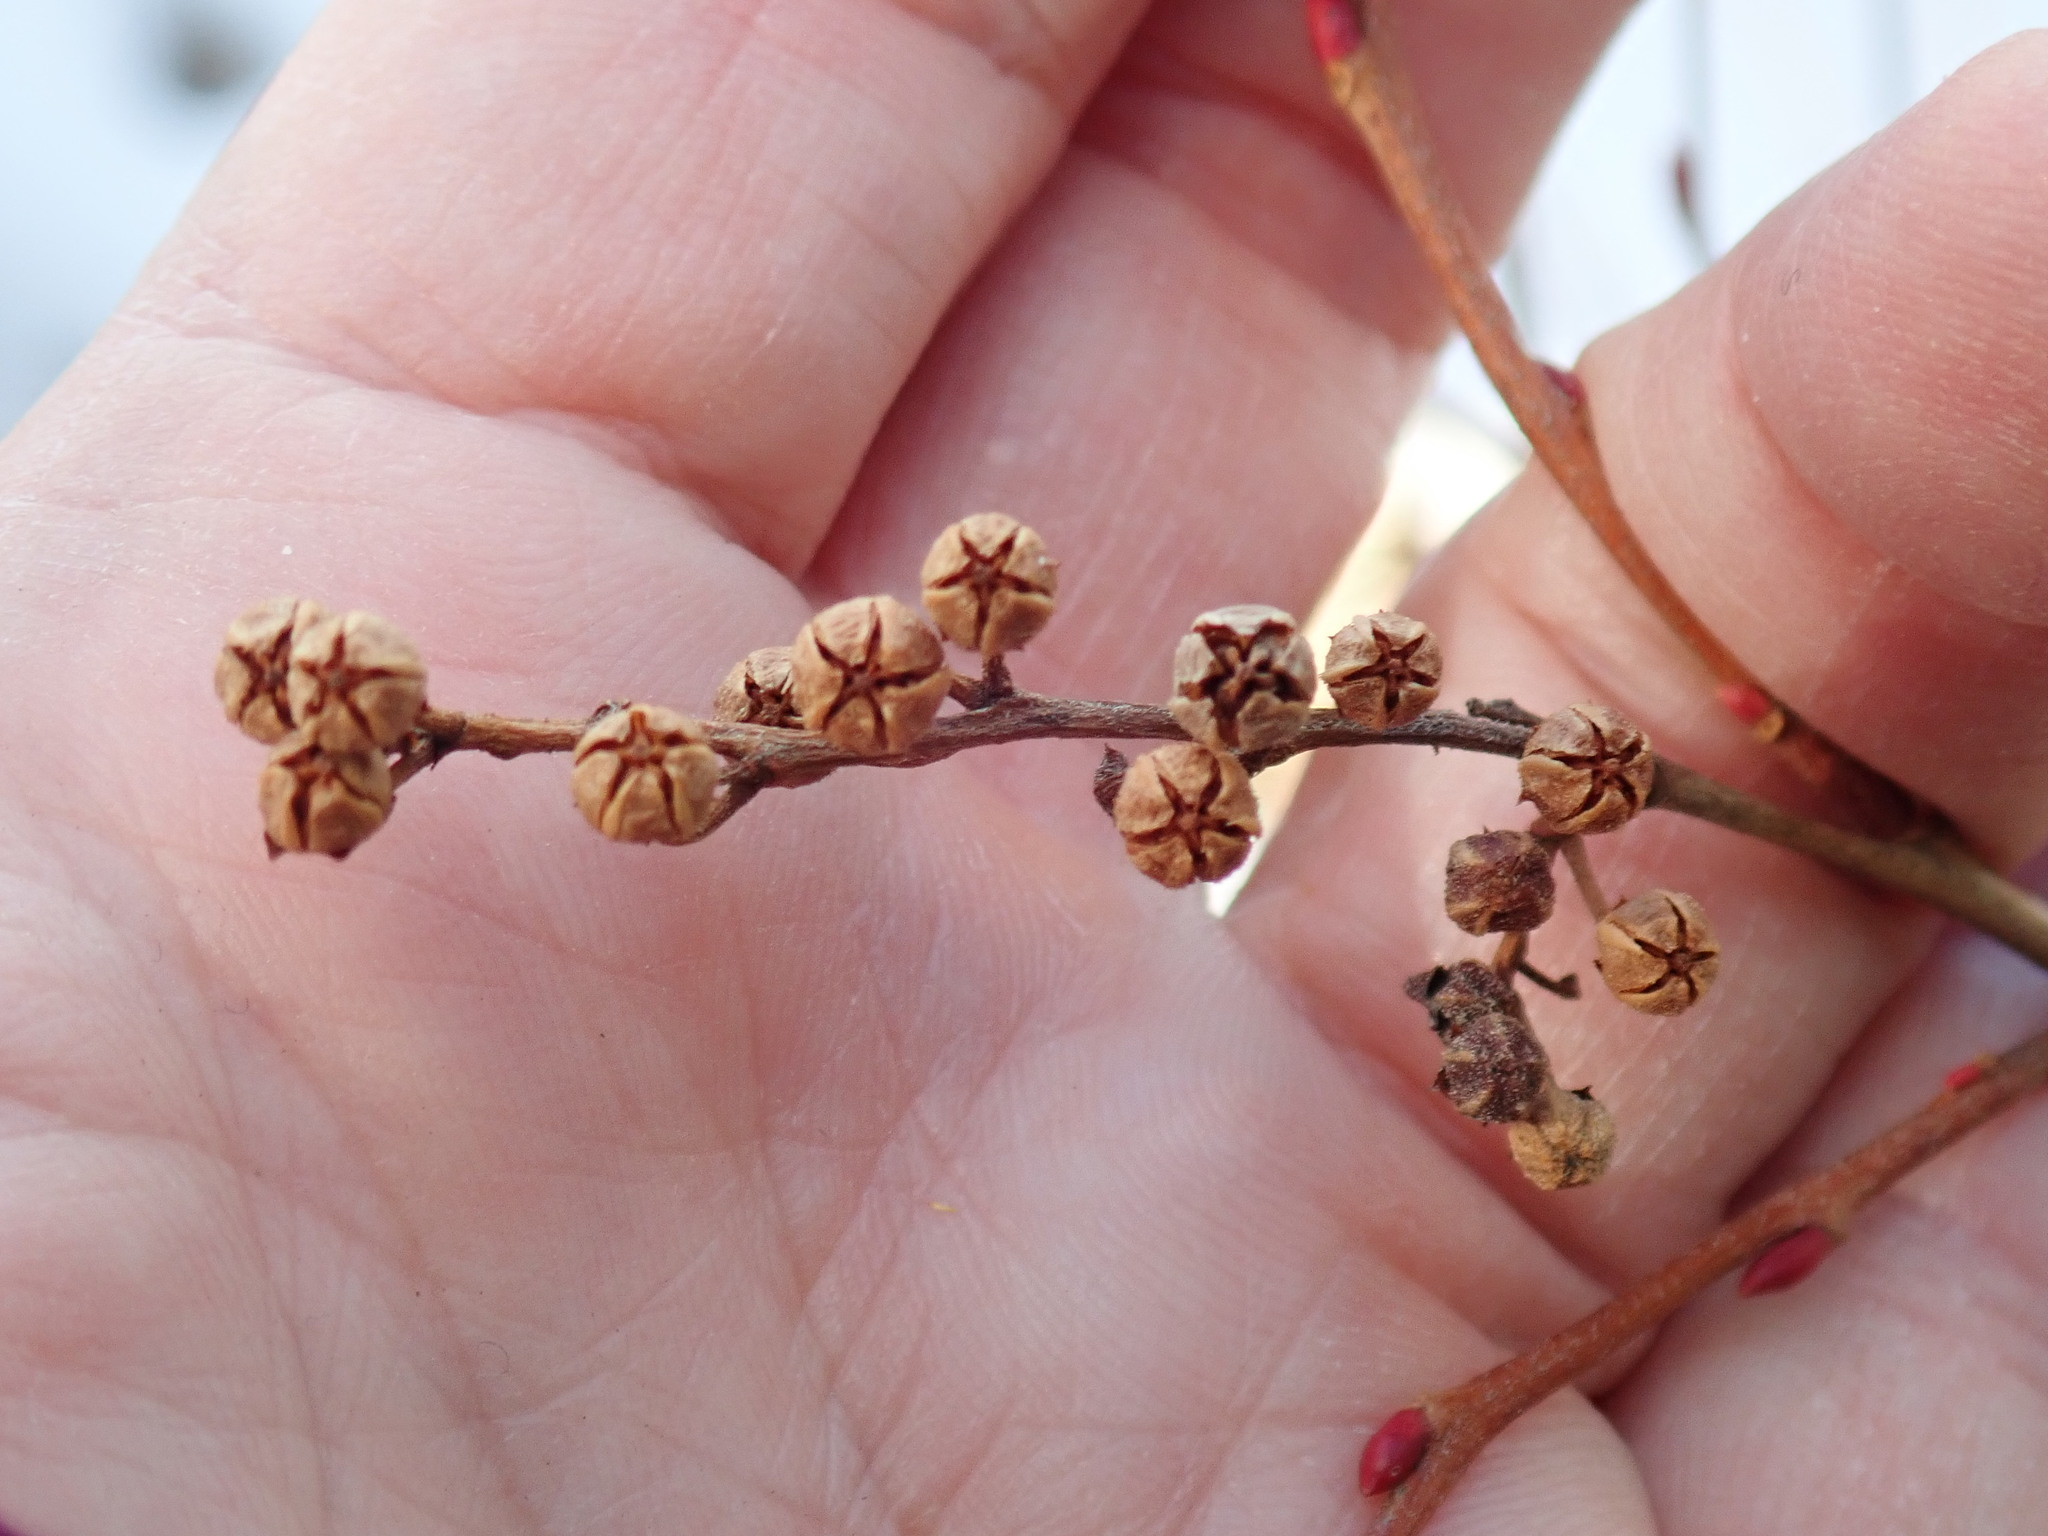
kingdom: Plantae
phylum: Tracheophyta
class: Magnoliopsida
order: Ericales
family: Ericaceae
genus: Lyonia
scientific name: Lyonia ligustrina
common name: Maleberry
